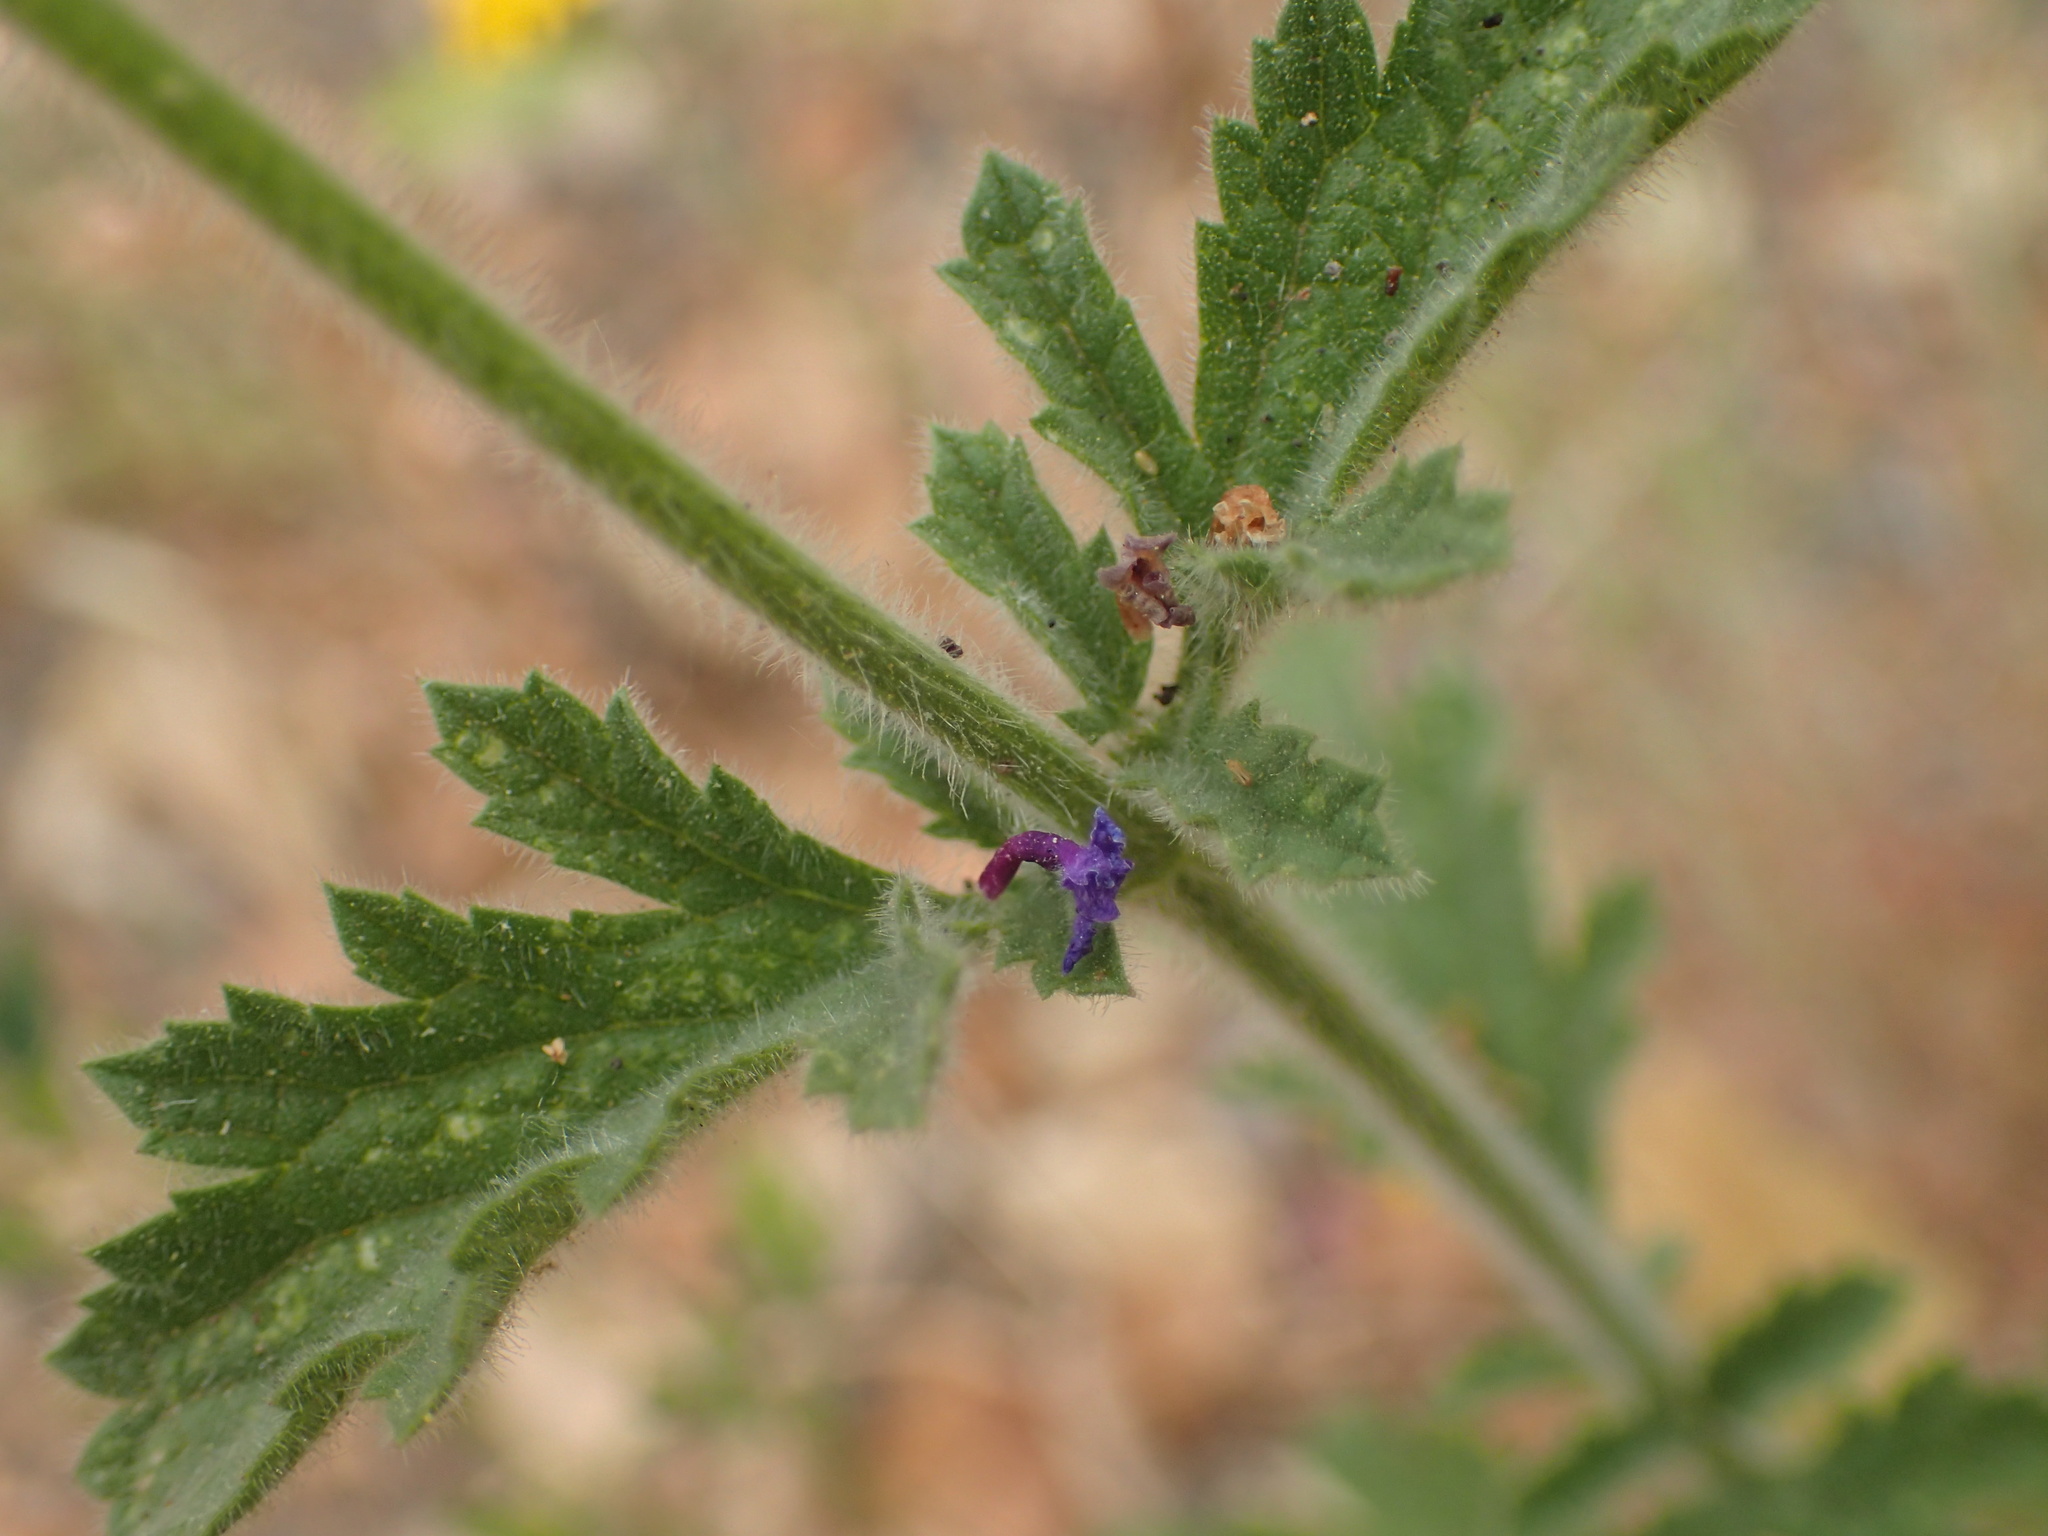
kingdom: Plantae
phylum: Tracheophyta
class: Magnoliopsida
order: Lamiales
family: Verbenaceae
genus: Verbena
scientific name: Verbena lasiostachys
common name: Vervain
